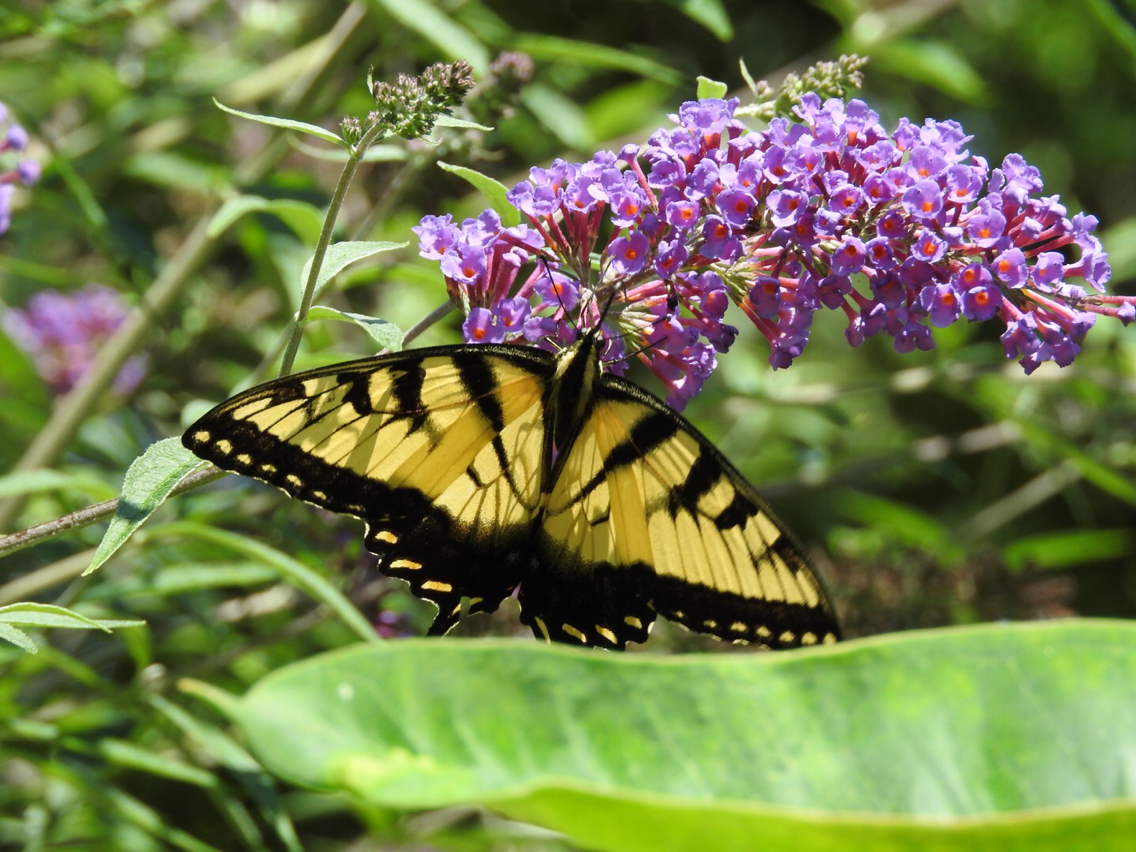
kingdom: Animalia
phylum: Arthropoda
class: Insecta
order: Lepidoptera
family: Papilionidae
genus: Papilio
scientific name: Papilio glaucus
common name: Tiger swallowtail
